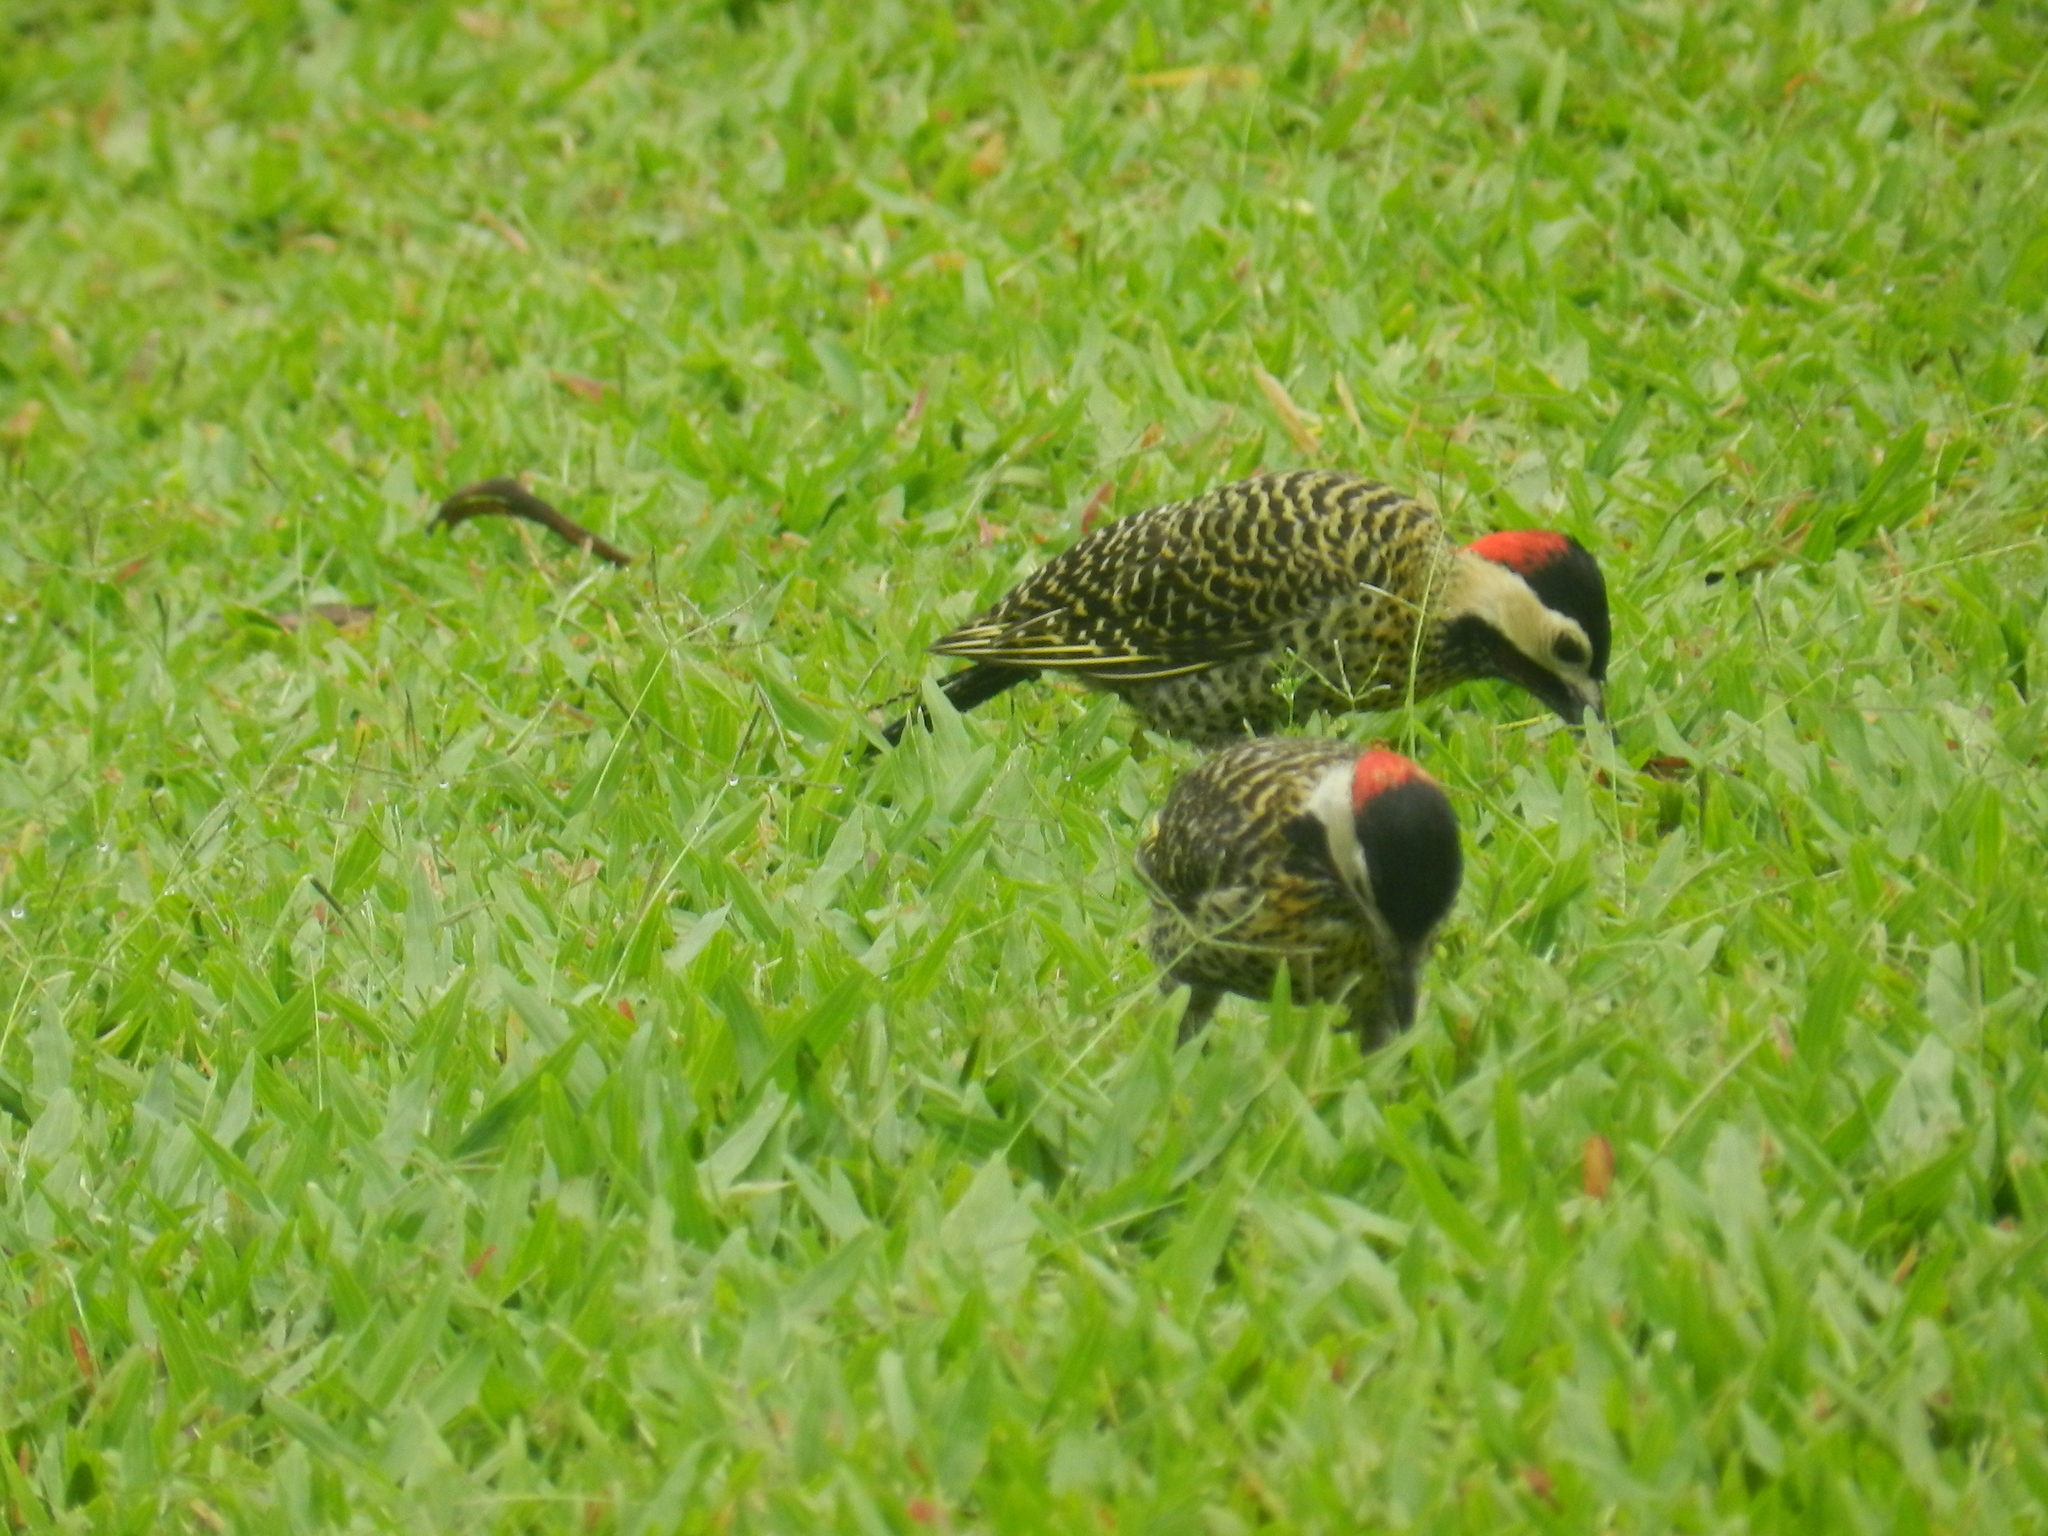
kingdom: Animalia
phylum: Chordata
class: Aves
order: Piciformes
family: Picidae
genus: Colaptes
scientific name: Colaptes melanochloros
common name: Green-barred woodpecker
